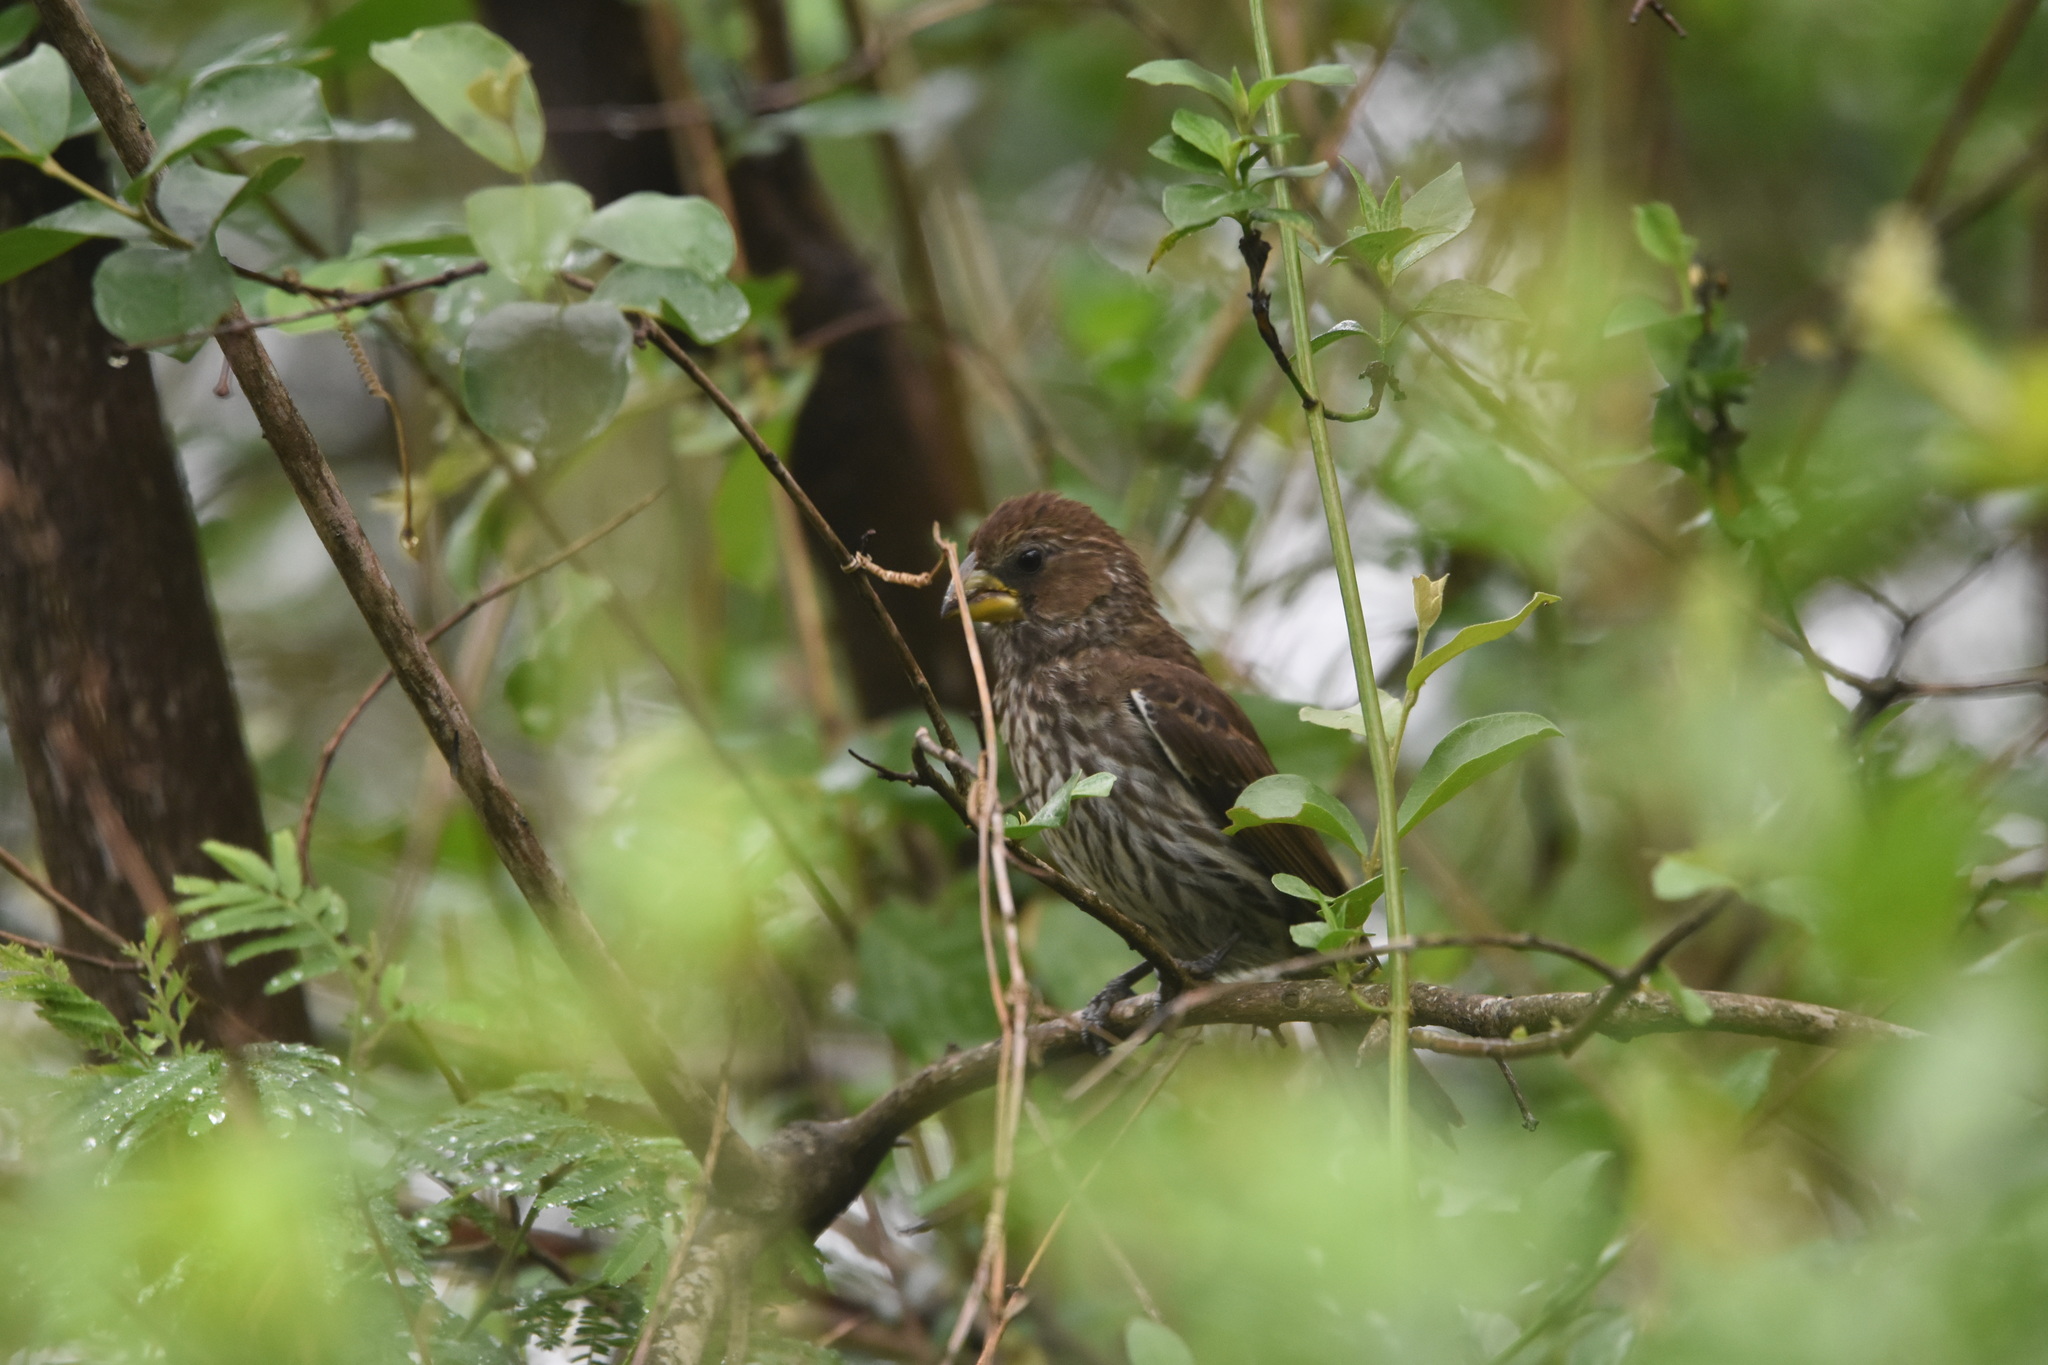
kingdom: Animalia
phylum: Chordata
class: Aves
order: Passeriformes
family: Ploceidae
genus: Amblyospiza
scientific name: Amblyospiza albifrons
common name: Thick-billed weaver
